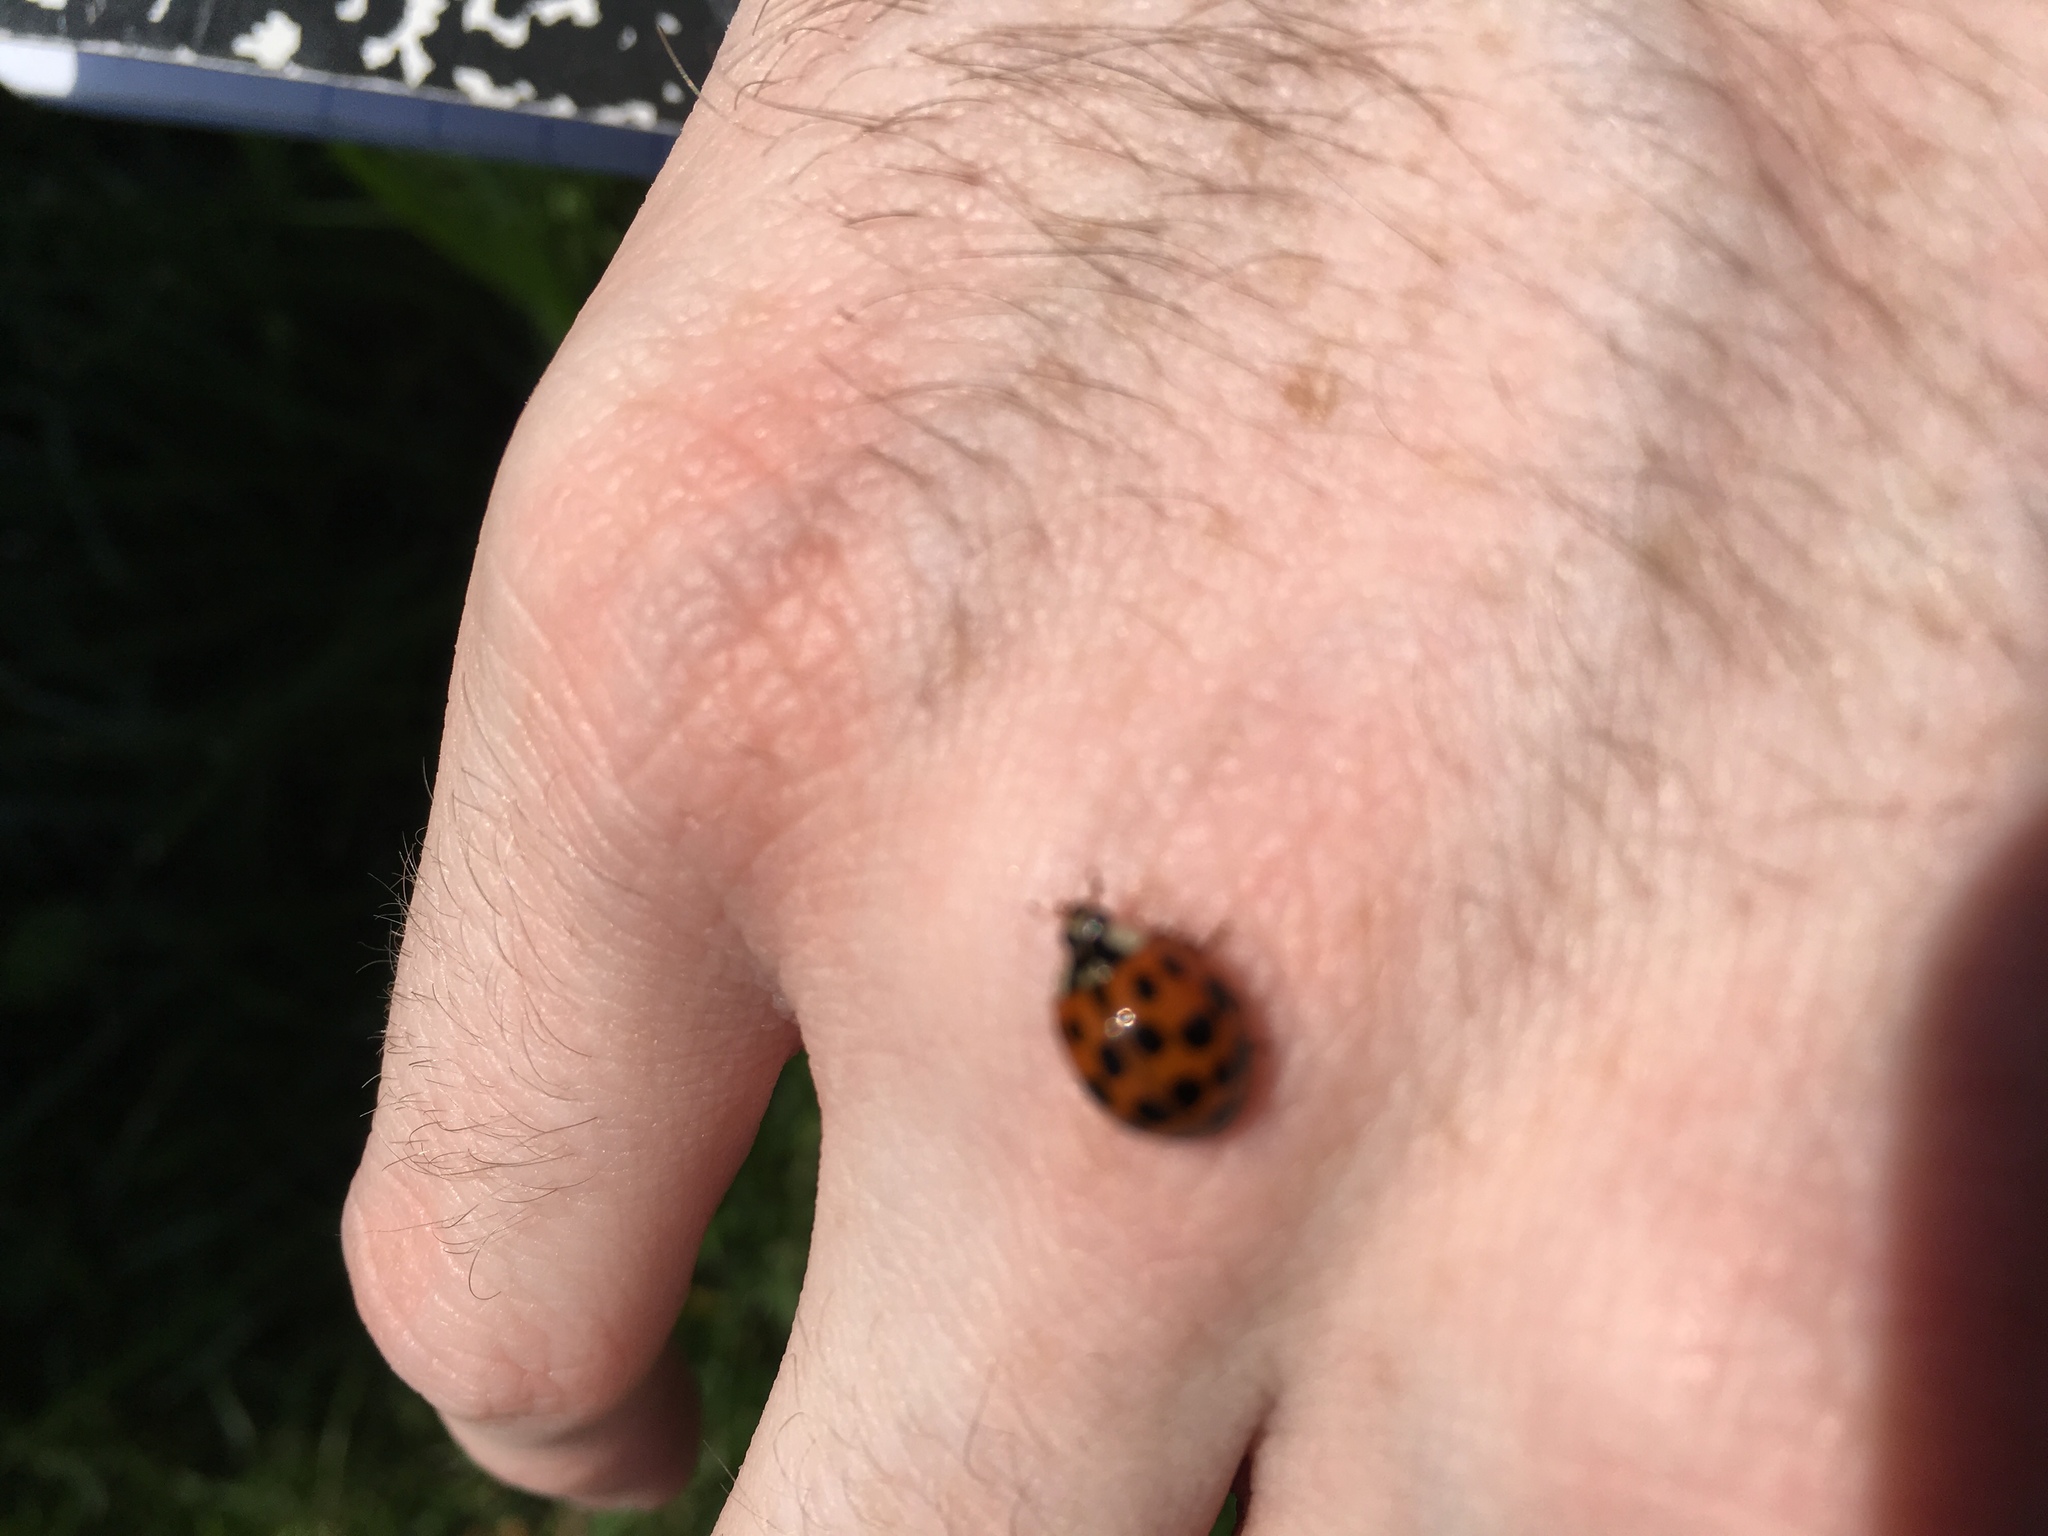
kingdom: Animalia
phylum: Arthropoda
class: Insecta
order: Coleoptera
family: Coccinellidae
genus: Harmonia
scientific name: Harmonia axyridis
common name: Harlequin ladybird
